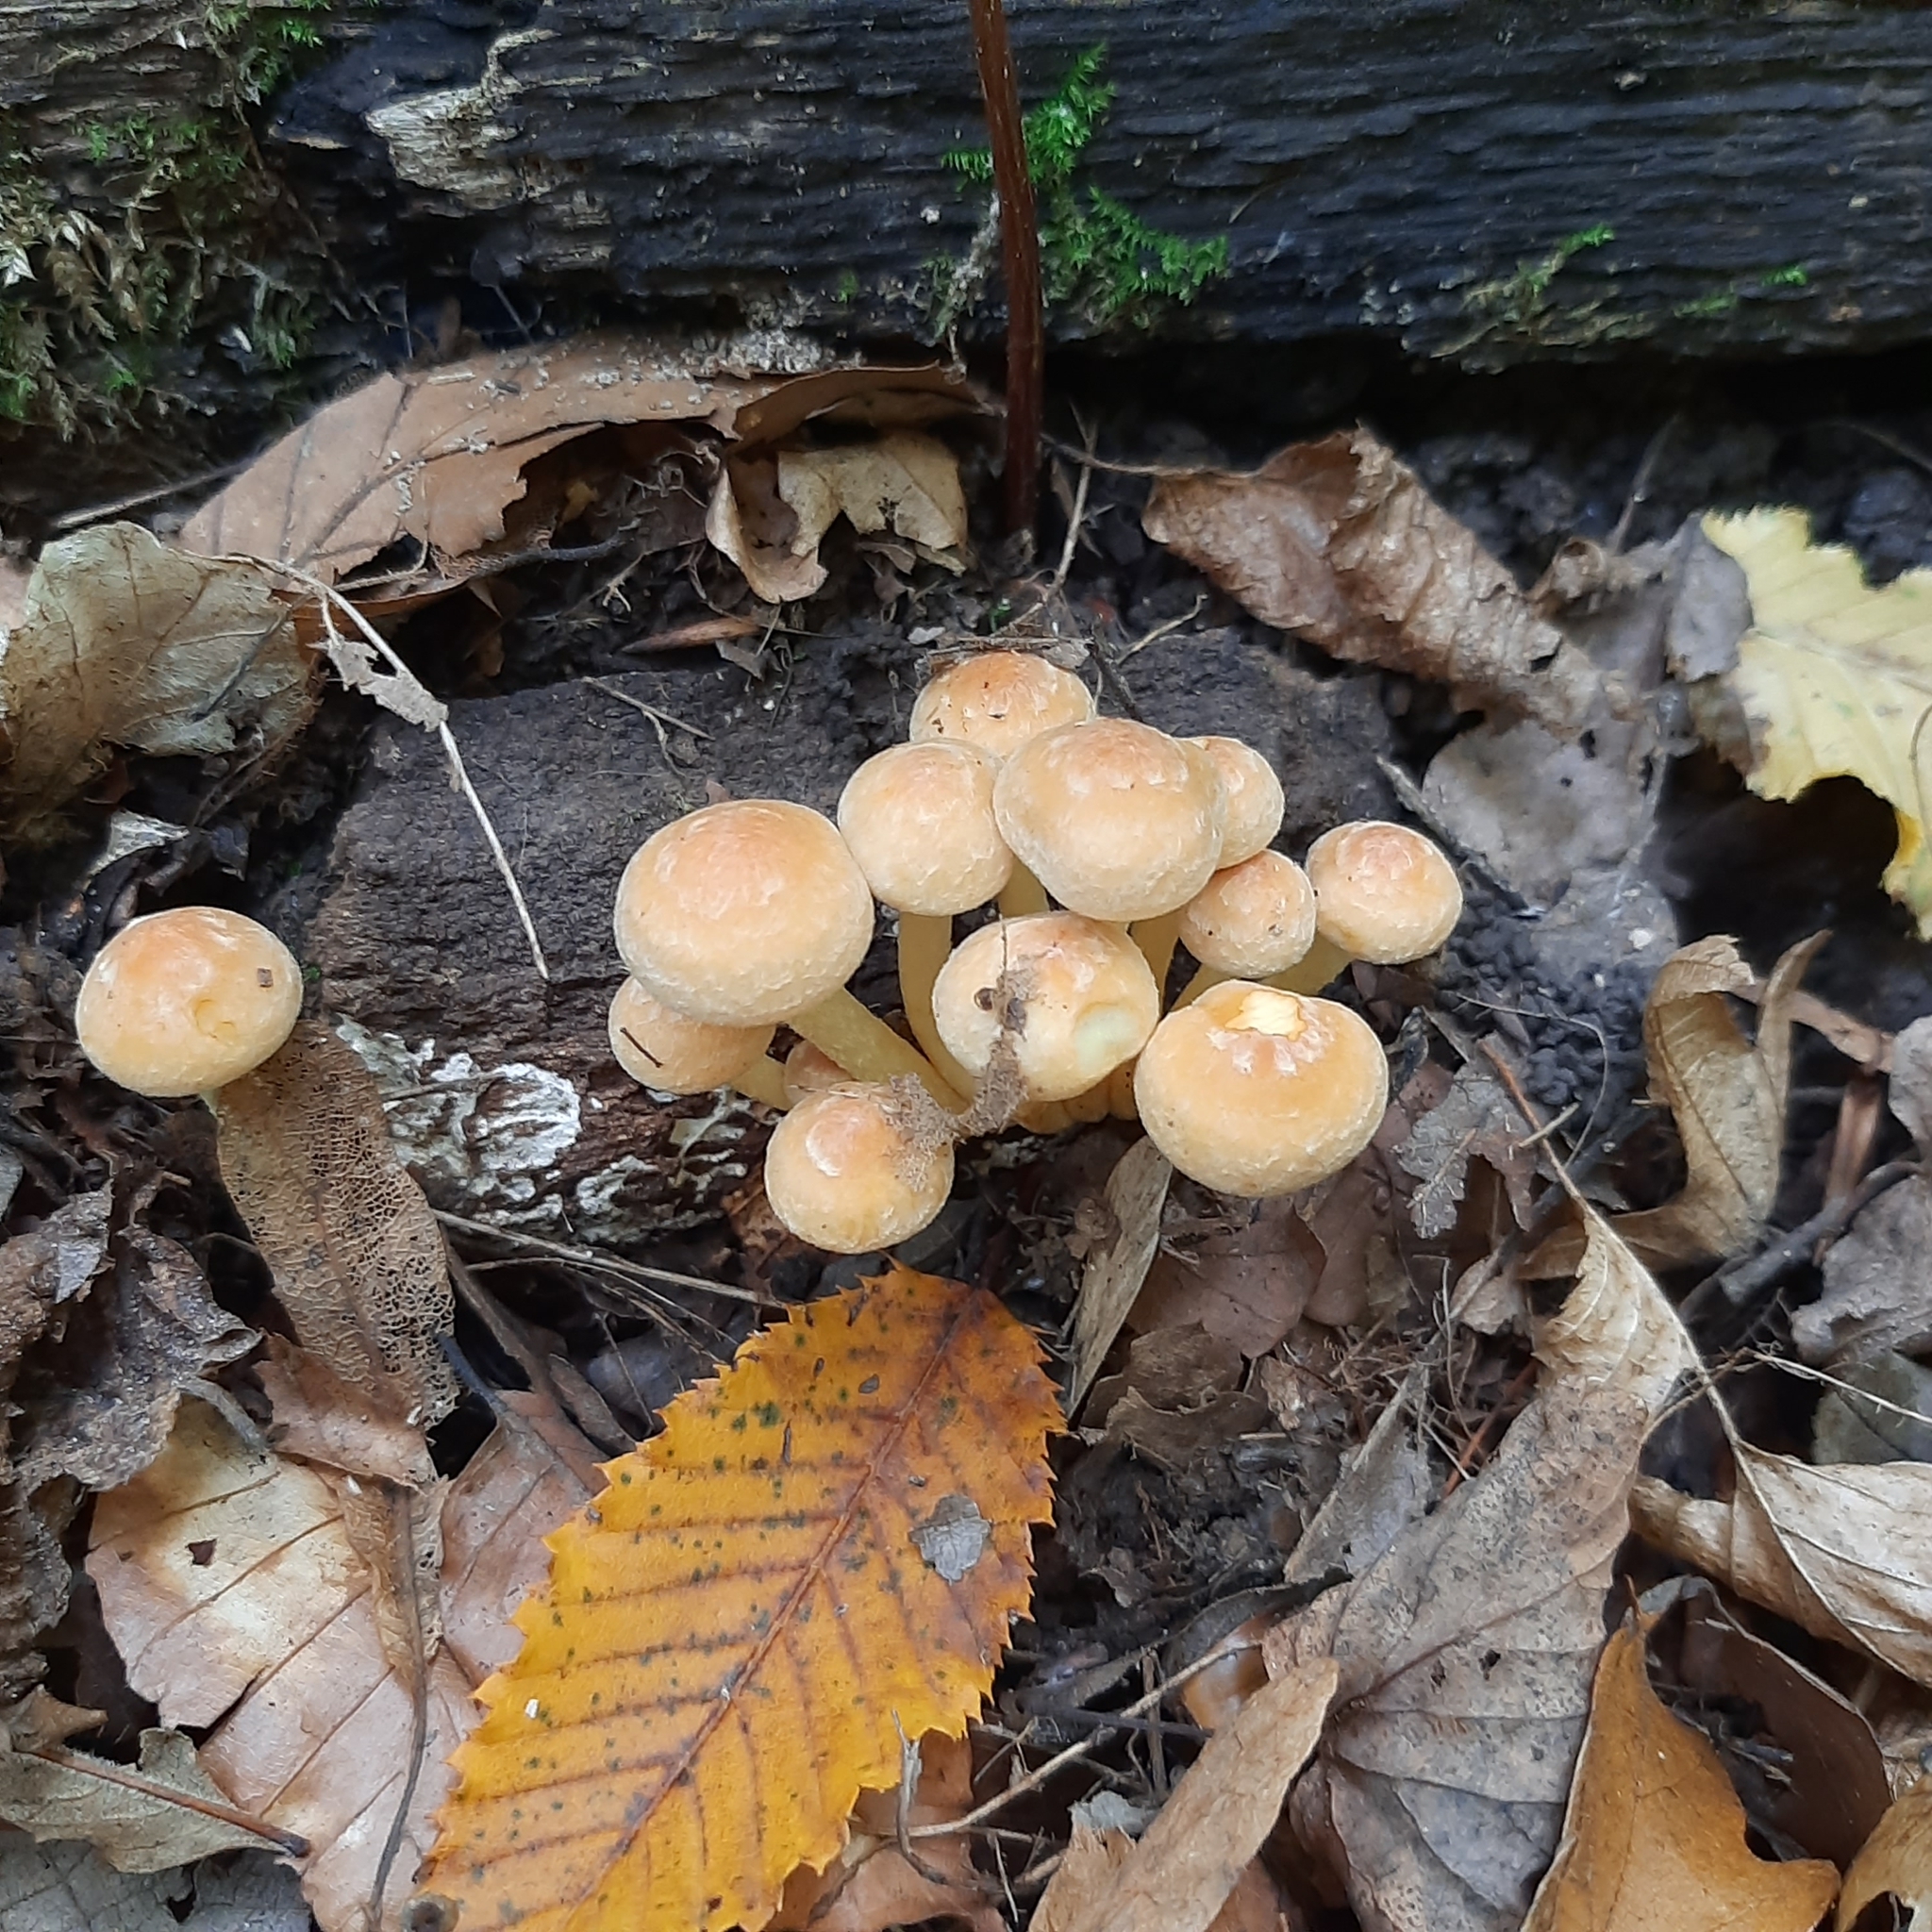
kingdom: Fungi
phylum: Basidiomycota
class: Agaricomycetes
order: Agaricales
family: Strophariaceae
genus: Hypholoma
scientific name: Hypholoma lateritium
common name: Brick caps
